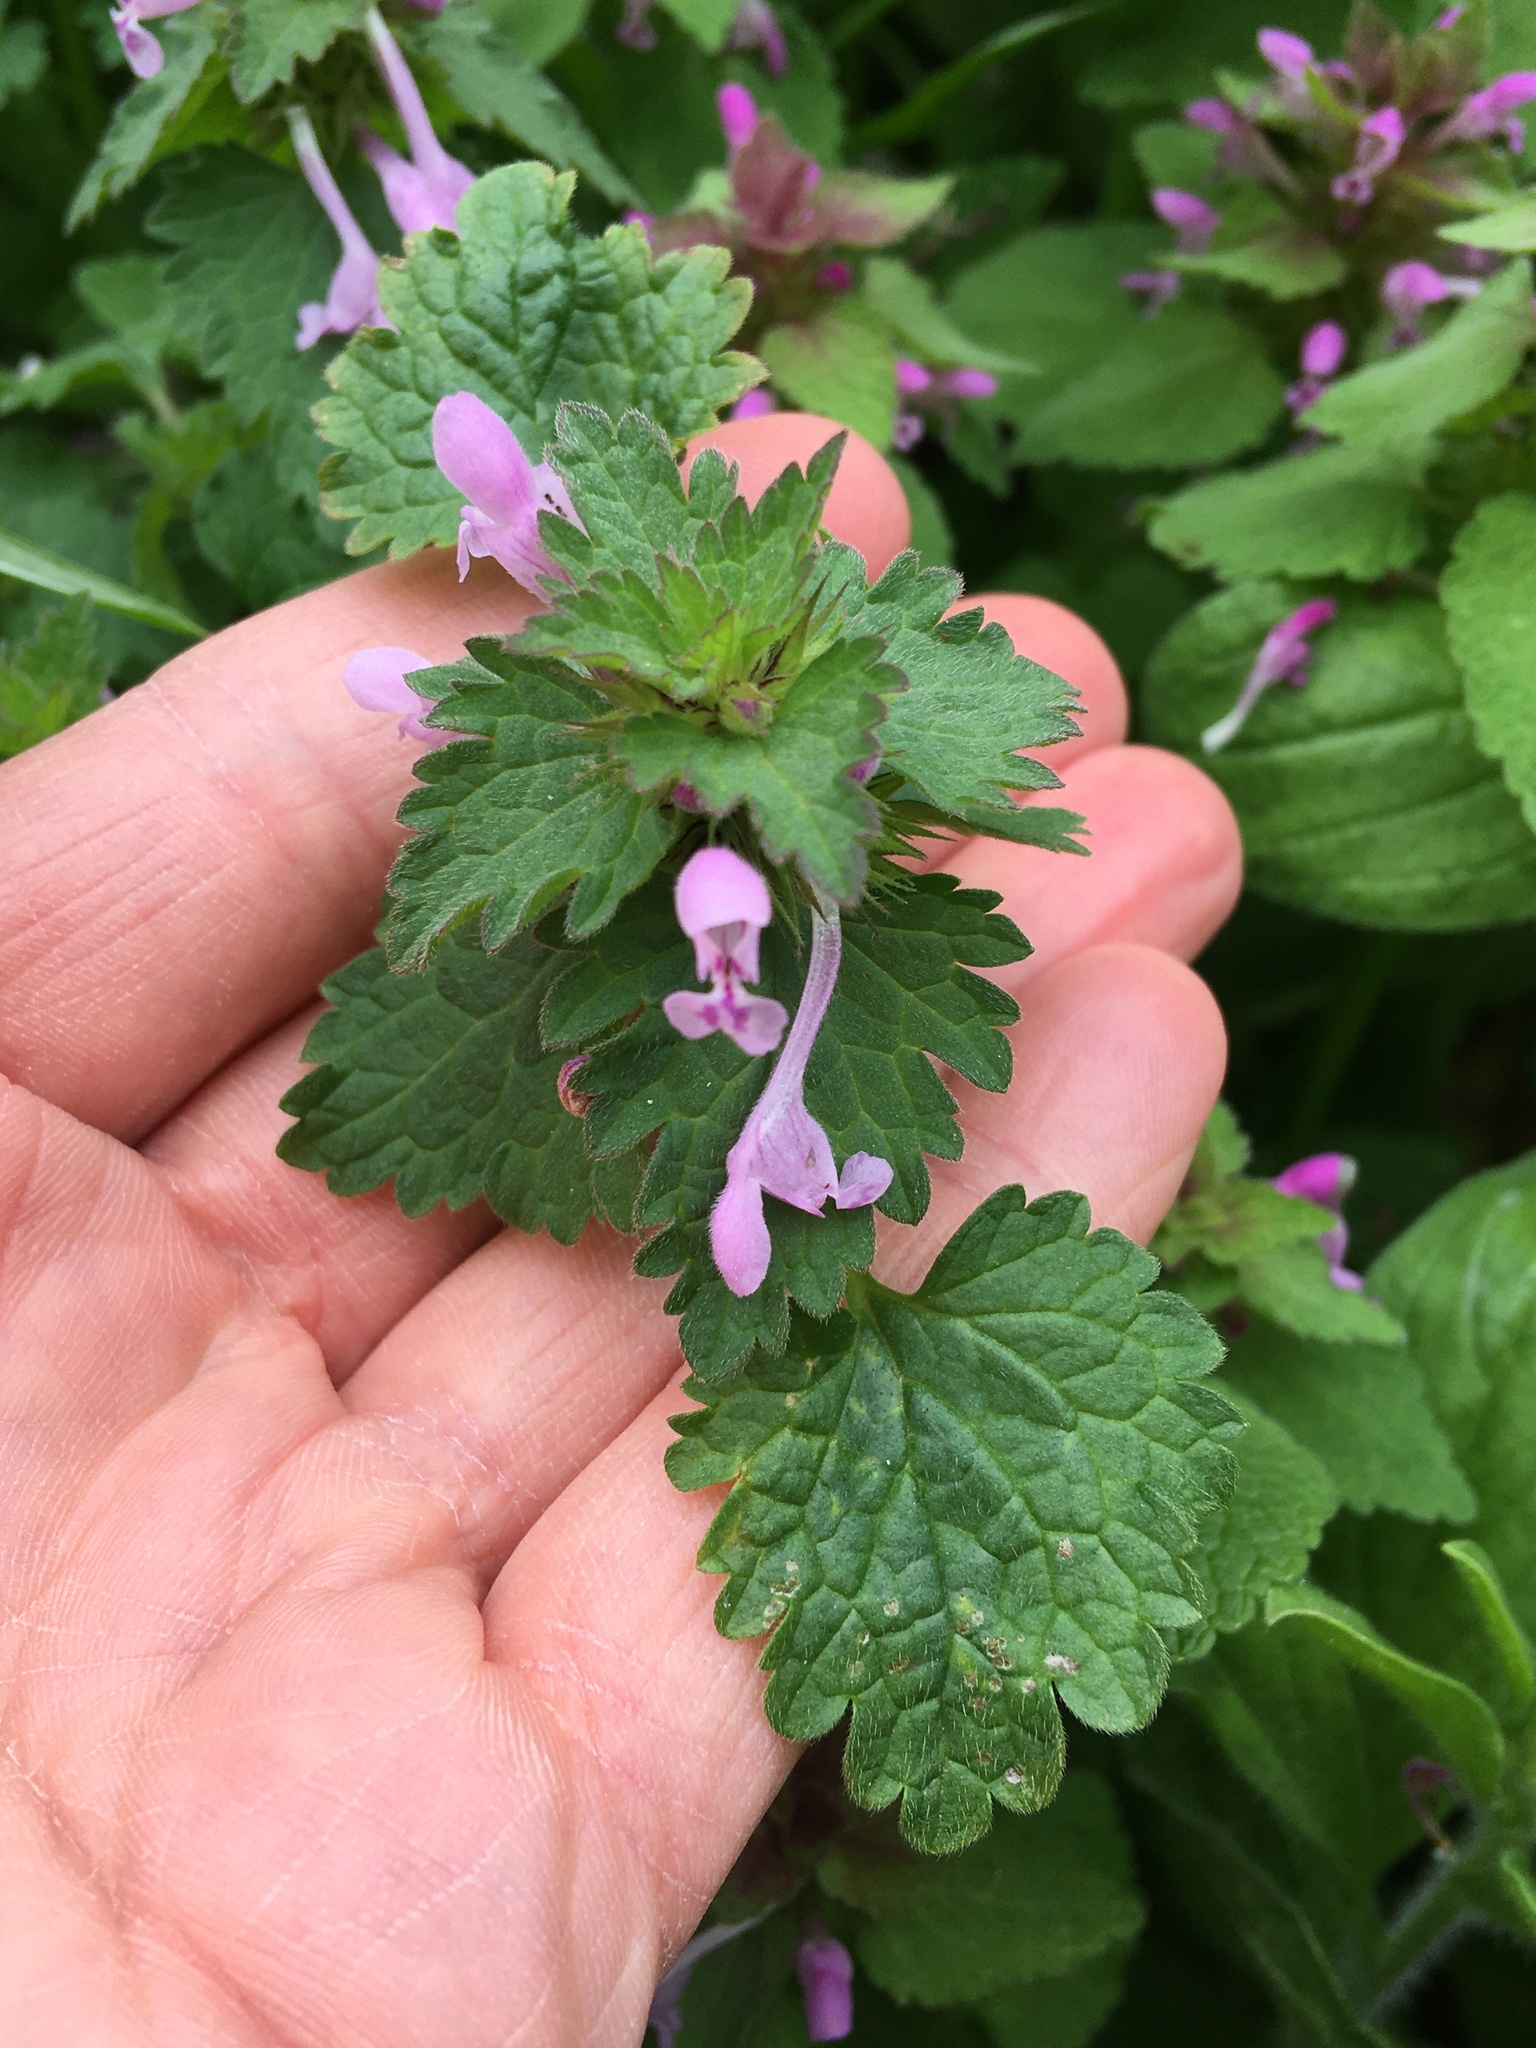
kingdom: Plantae
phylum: Tracheophyta
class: Magnoliopsida
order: Lamiales
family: Lamiaceae
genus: Lamium
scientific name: Lamium hybridum
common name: Cut-leaved dead-nettle
